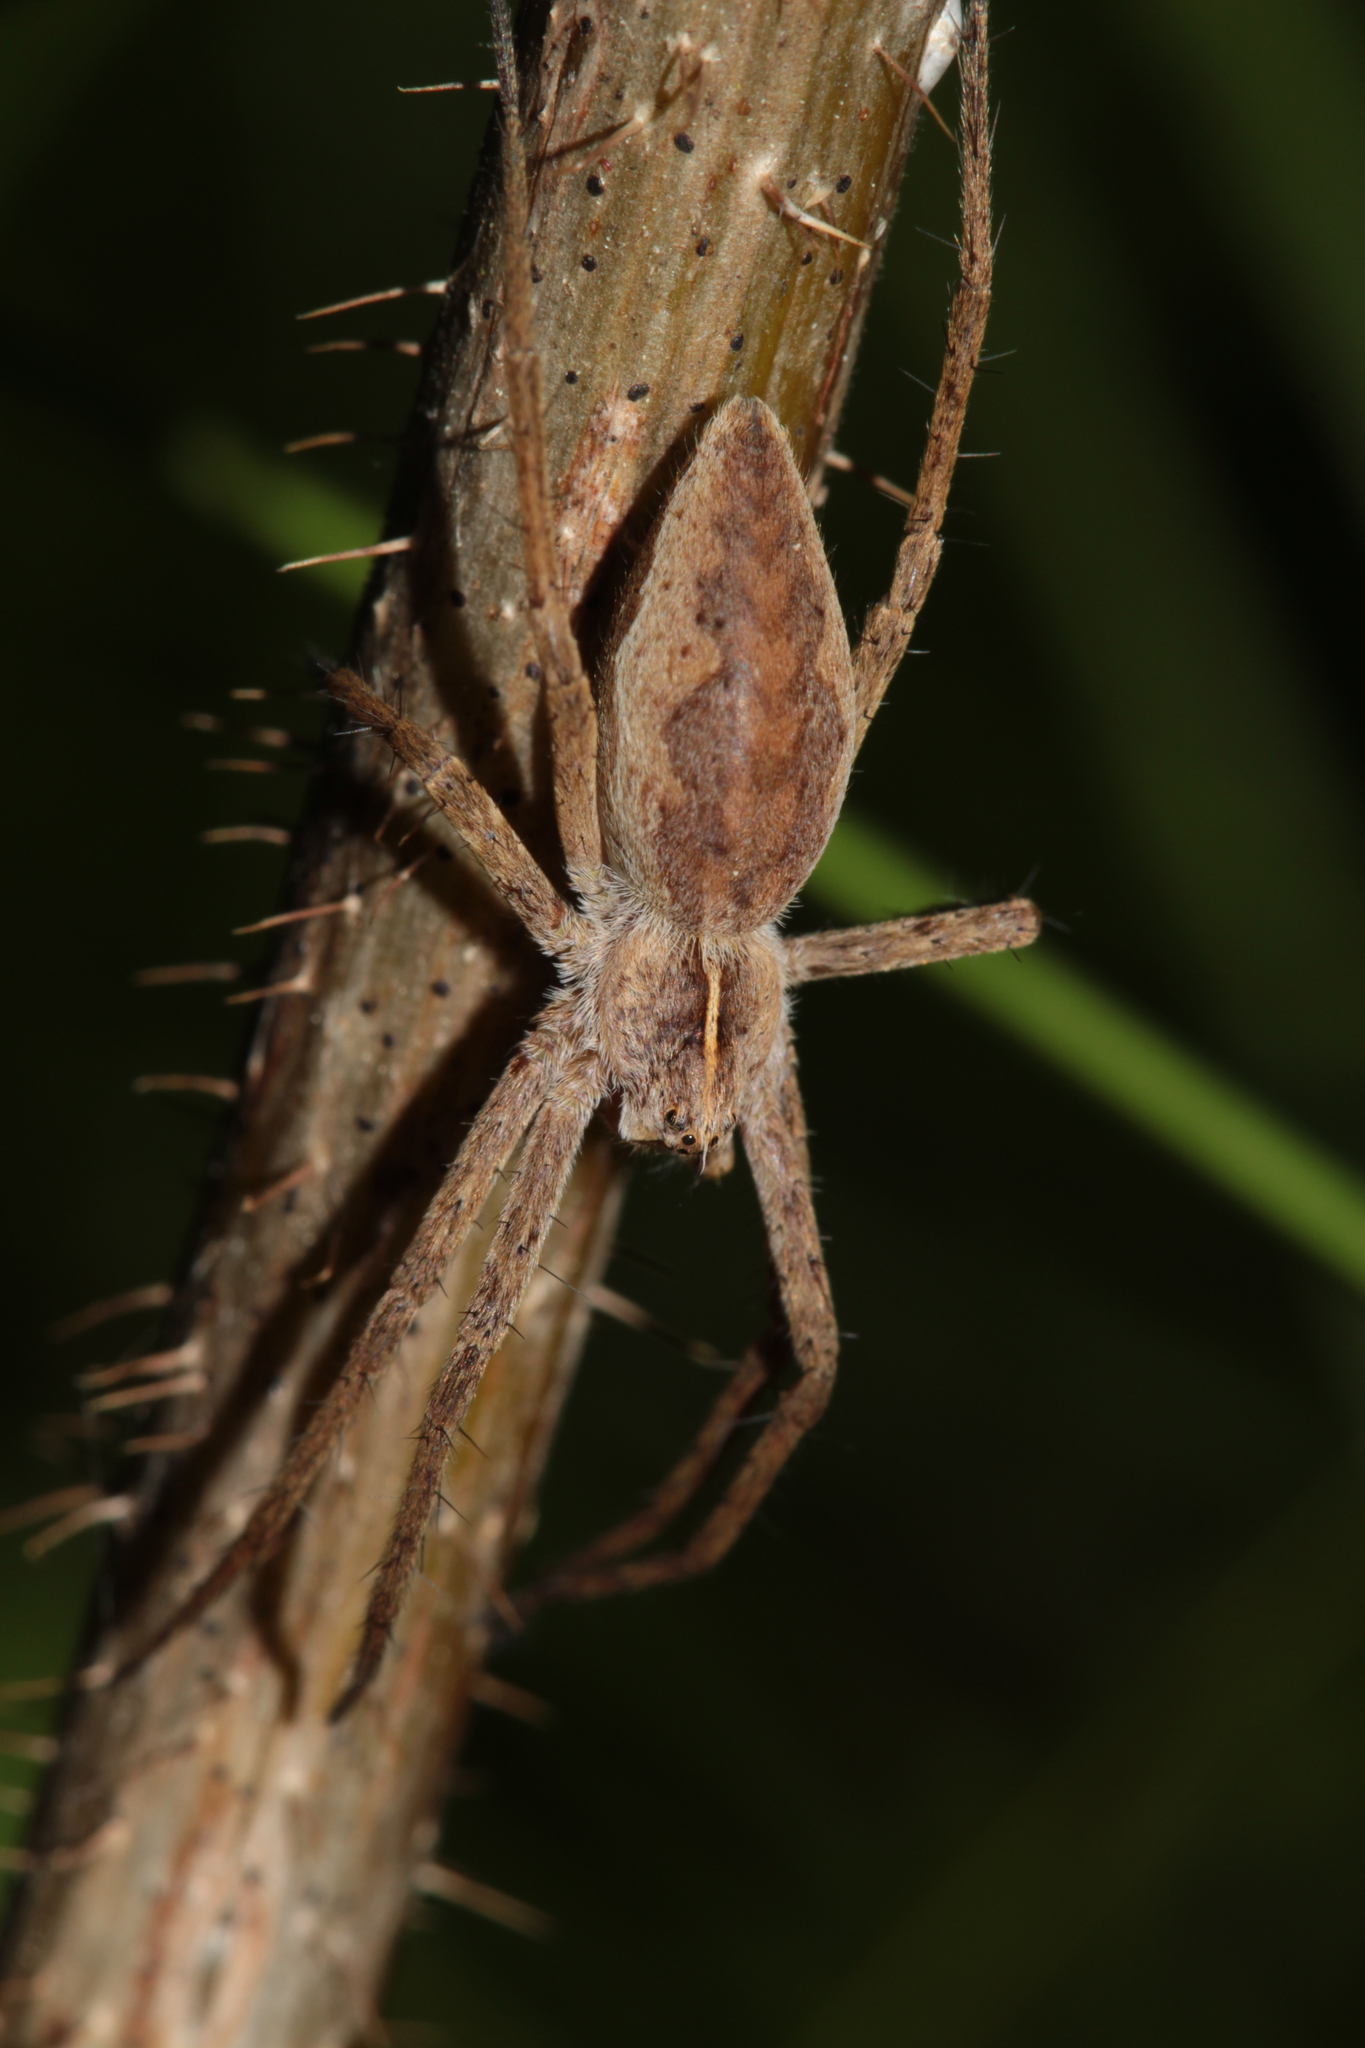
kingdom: Animalia
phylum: Arthropoda
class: Arachnida
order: Araneae
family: Pisauridae
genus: Pisaura
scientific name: Pisaura mirabilis
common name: Tent spider
